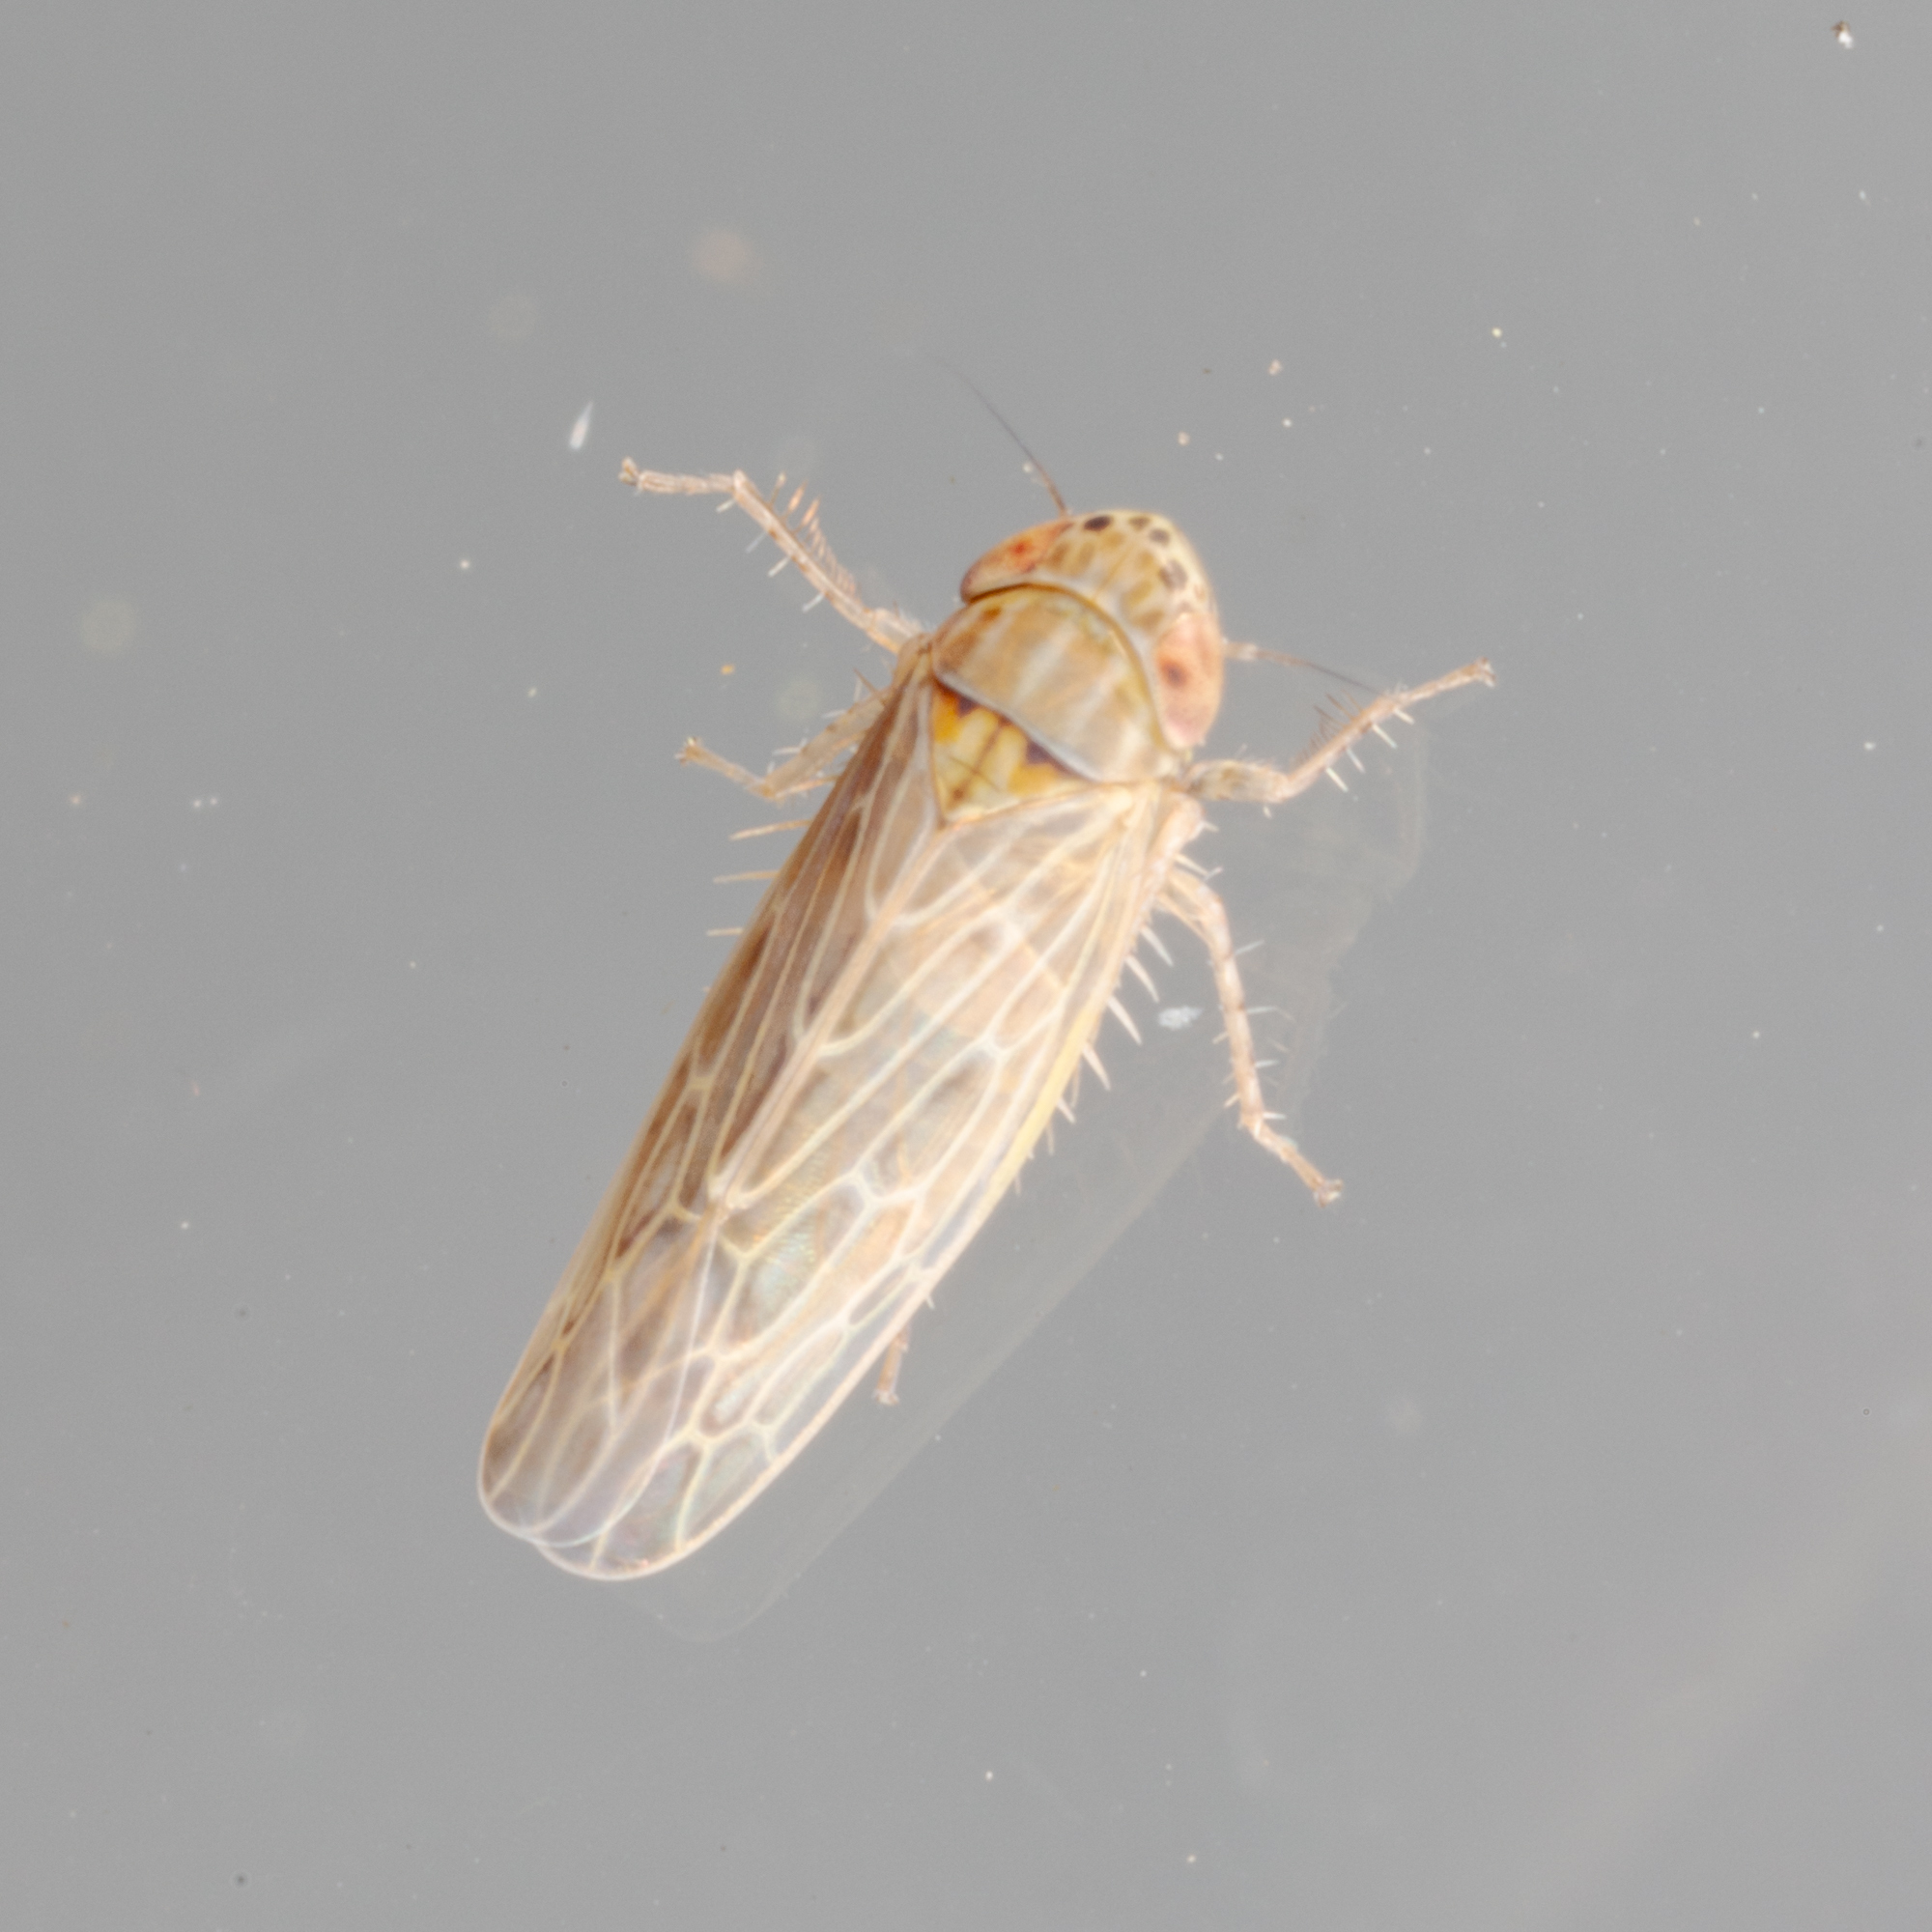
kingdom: Animalia
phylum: Arthropoda
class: Insecta
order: Hemiptera
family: Cicadellidae
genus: Graminella
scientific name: Graminella sonora
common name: Lesser lawn leafhopper
